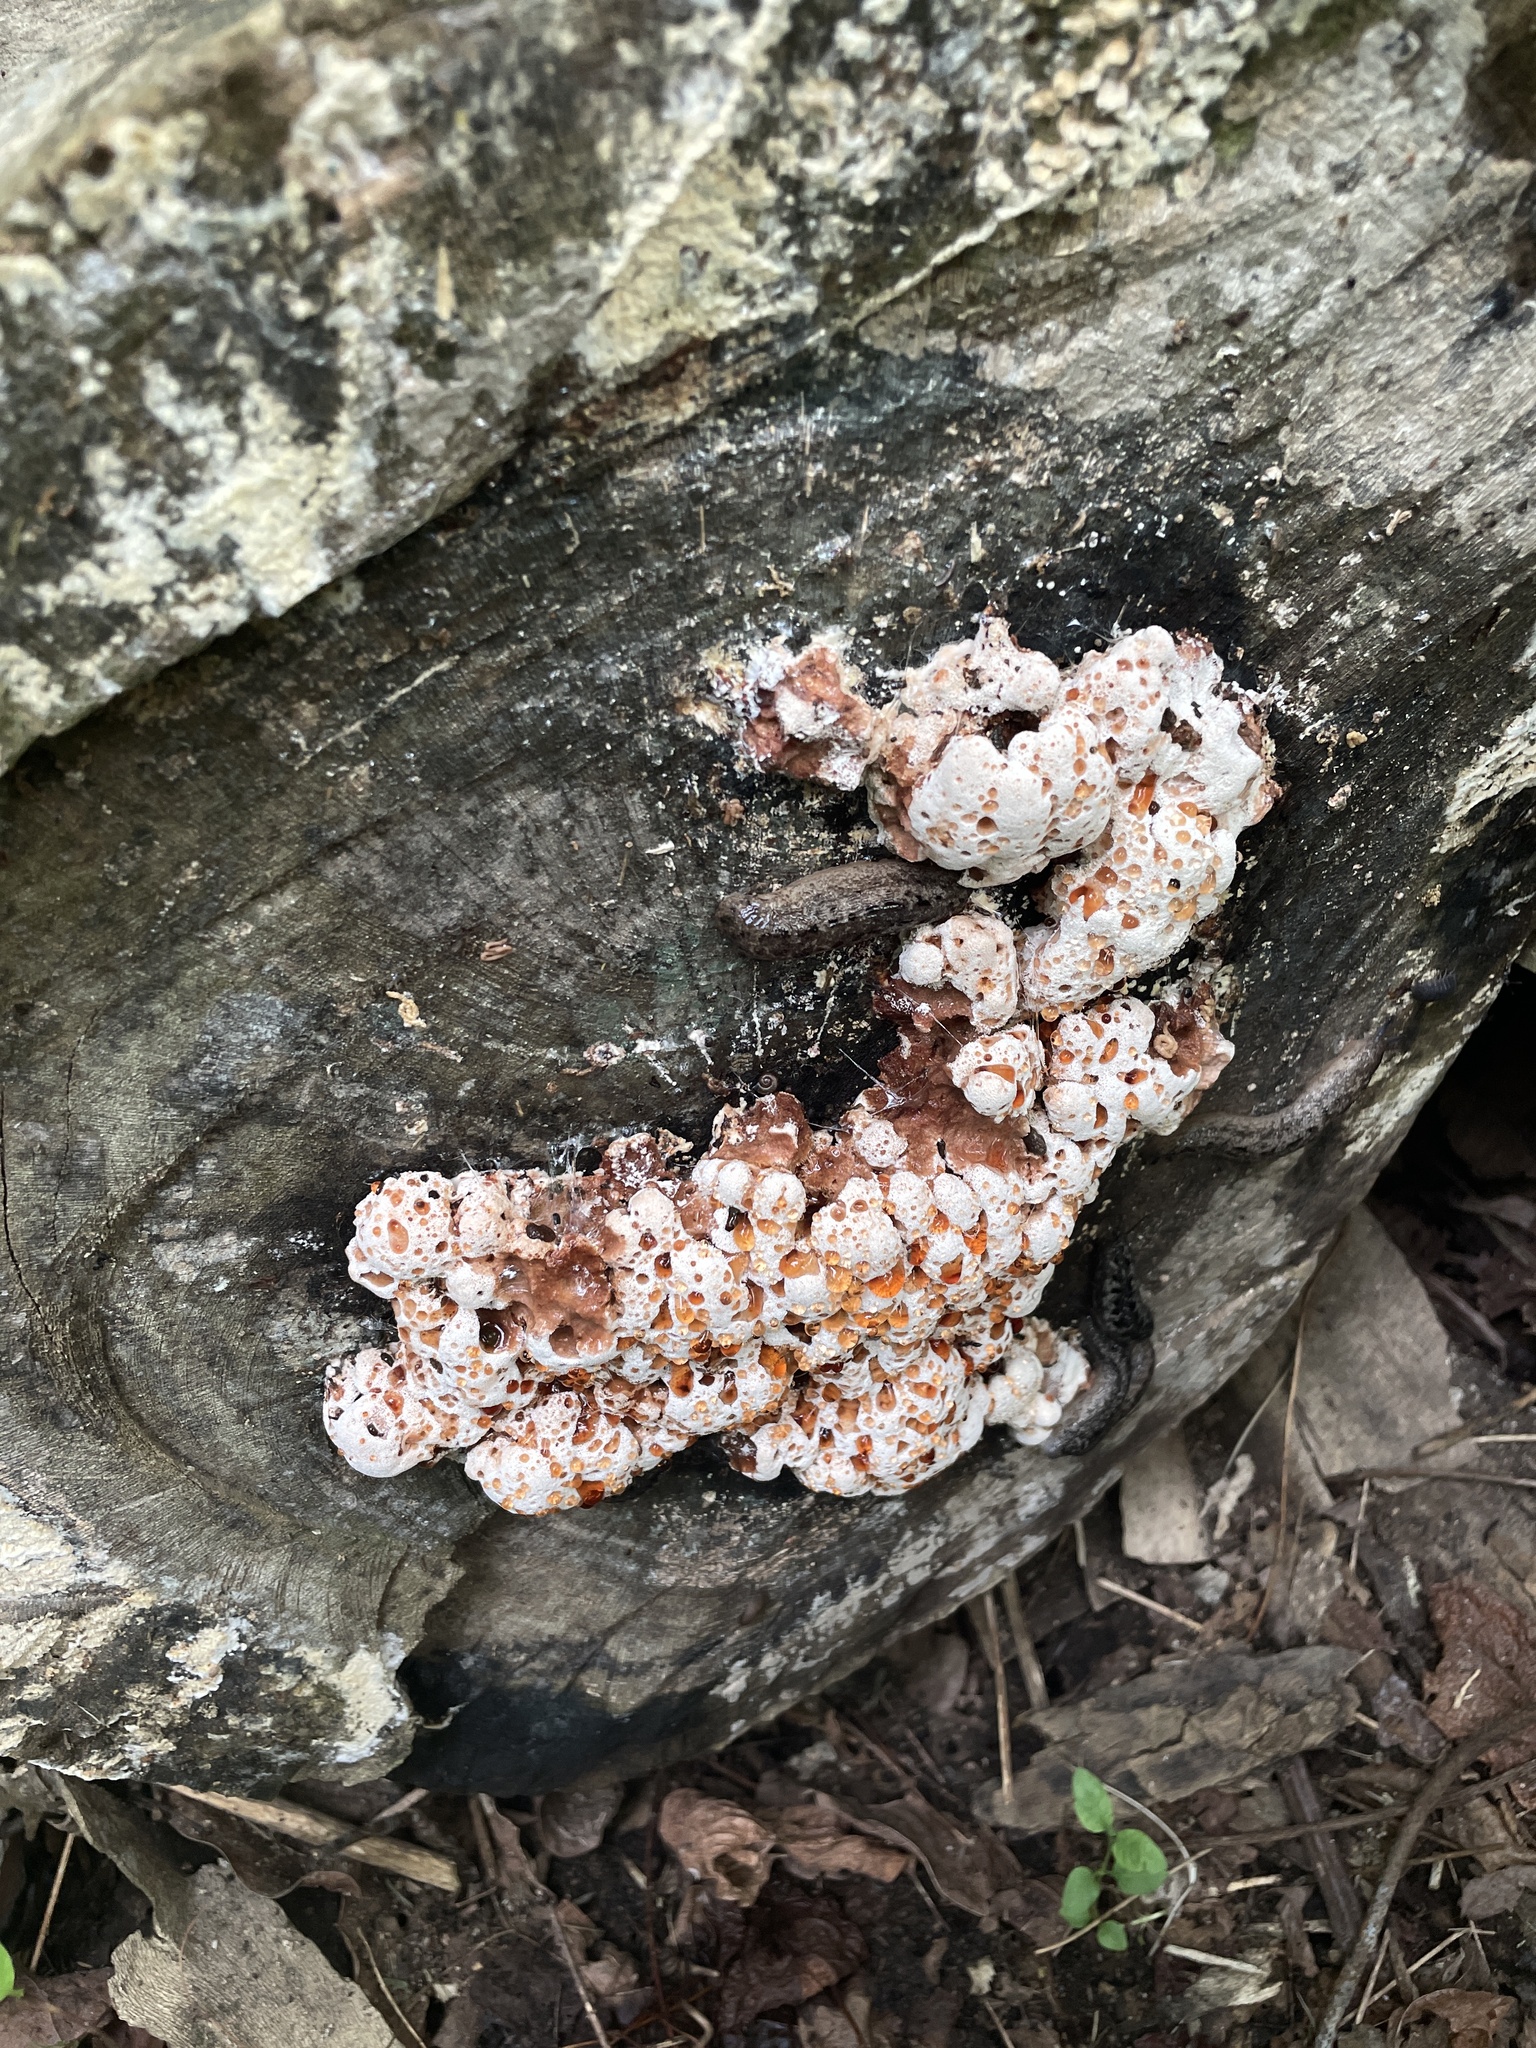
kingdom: Fungi
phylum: Basidiomycota
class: Agaricomycetes
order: Polyporales
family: Podoscyphaceae
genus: Abortiporus
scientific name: Abortiporus biennis
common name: Blushing rosette
